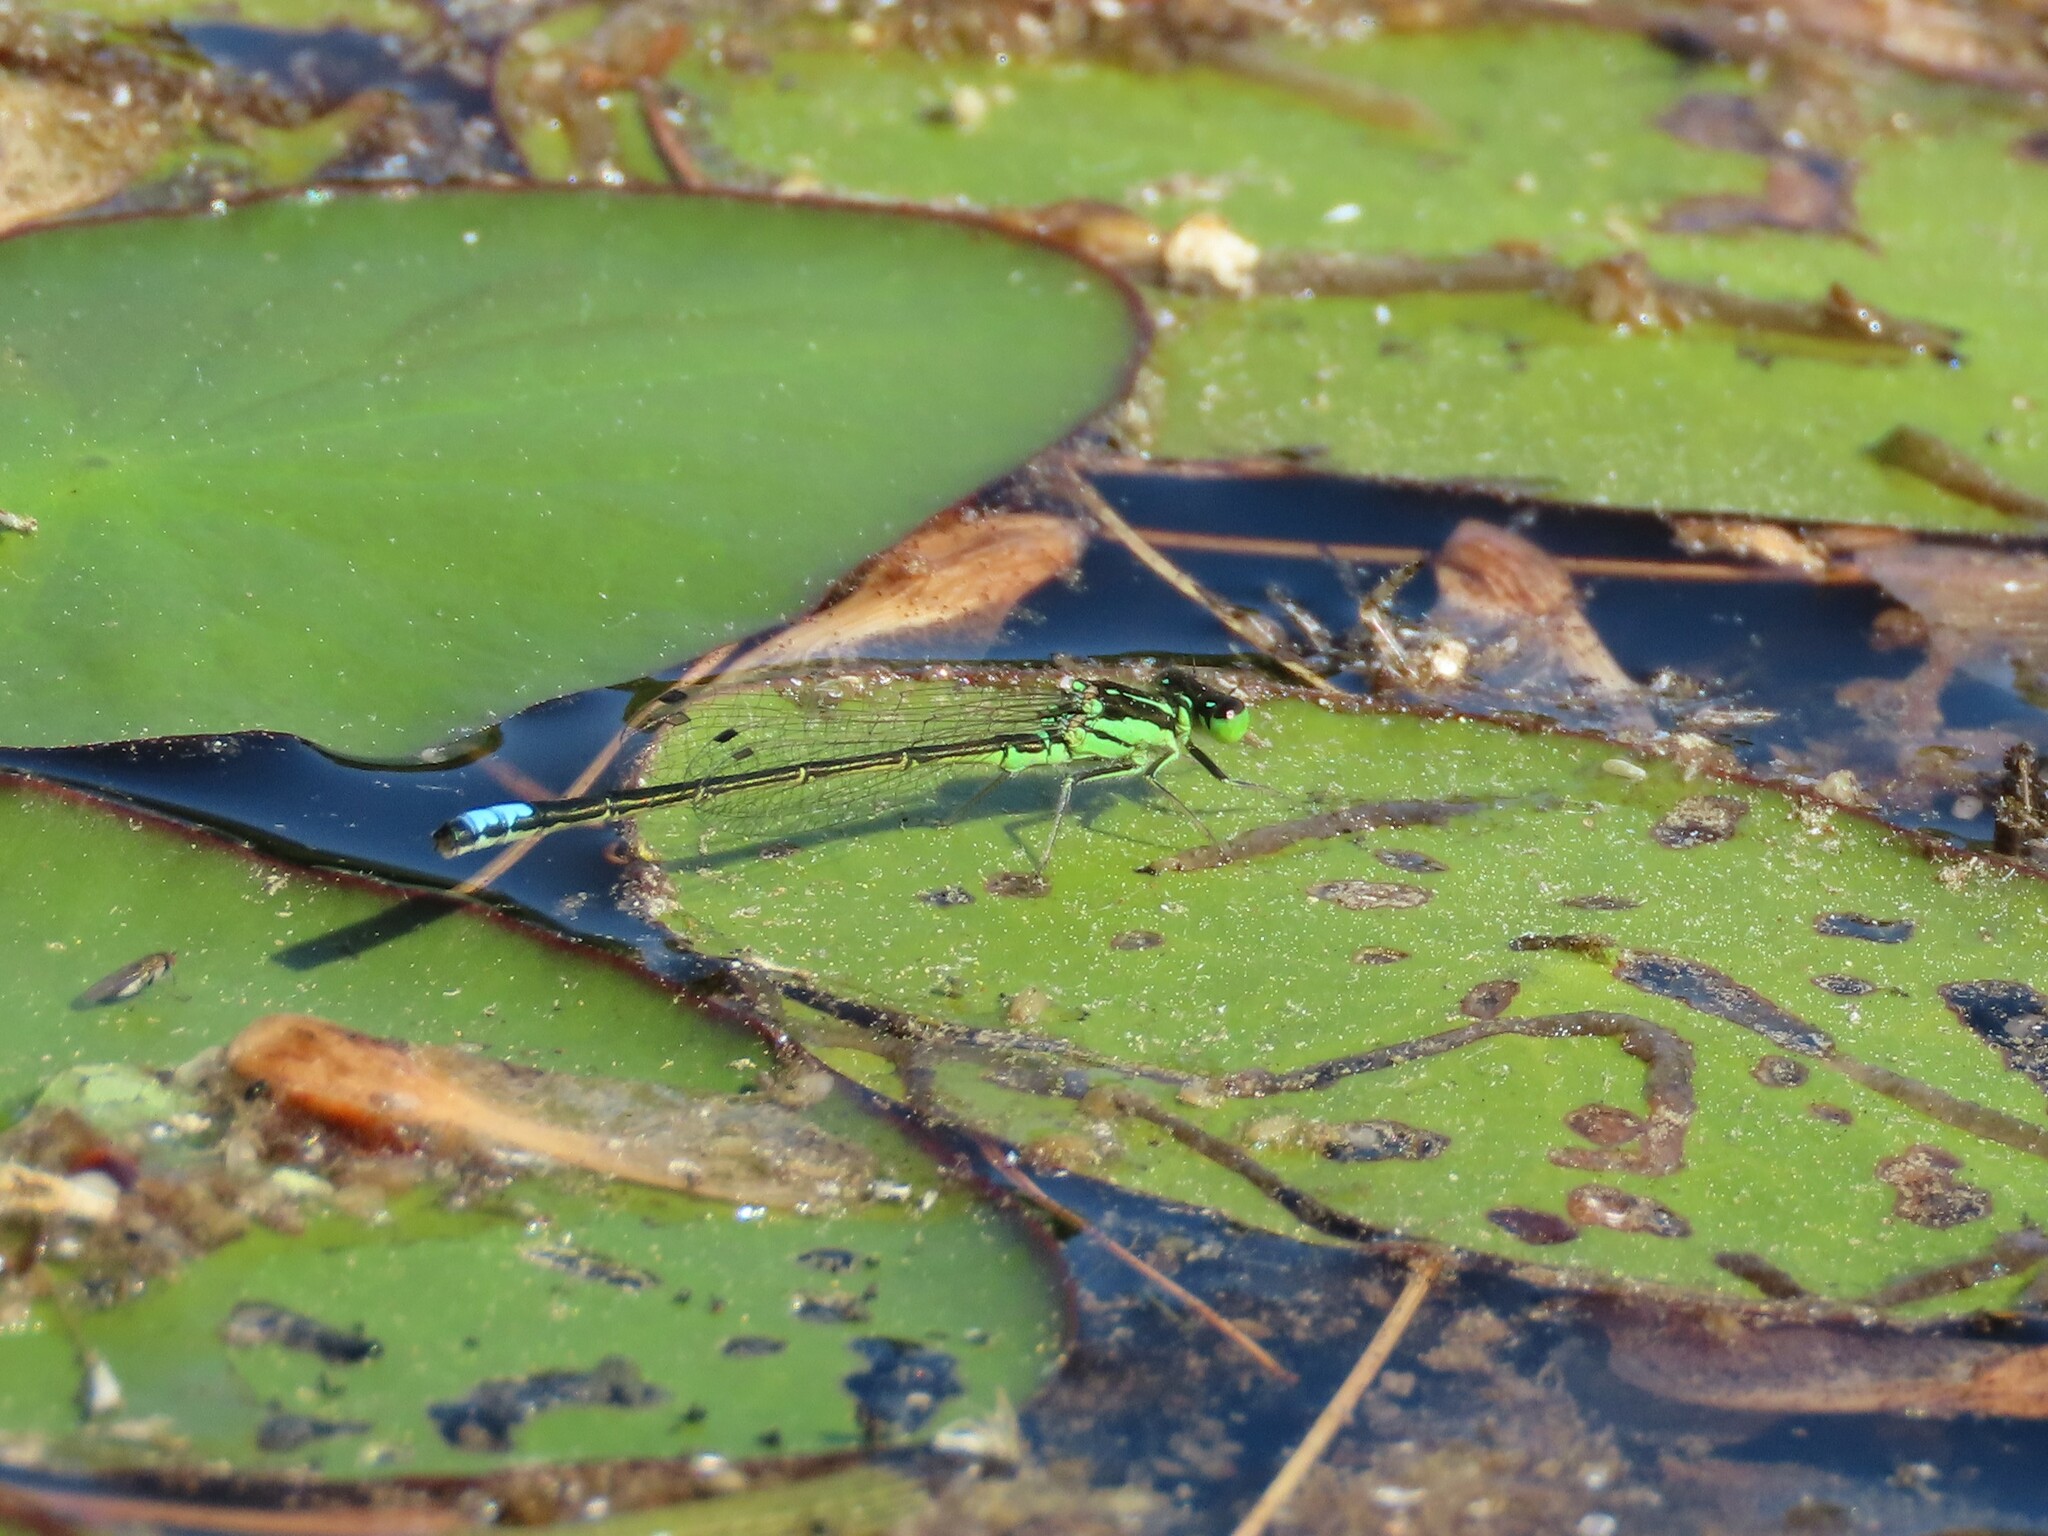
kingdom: Animalia
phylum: Arthropoda
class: Insecta
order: Odonata
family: Coenagrionidae
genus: Ischnura
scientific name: Ischnura verticalis
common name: Eastern forktail
